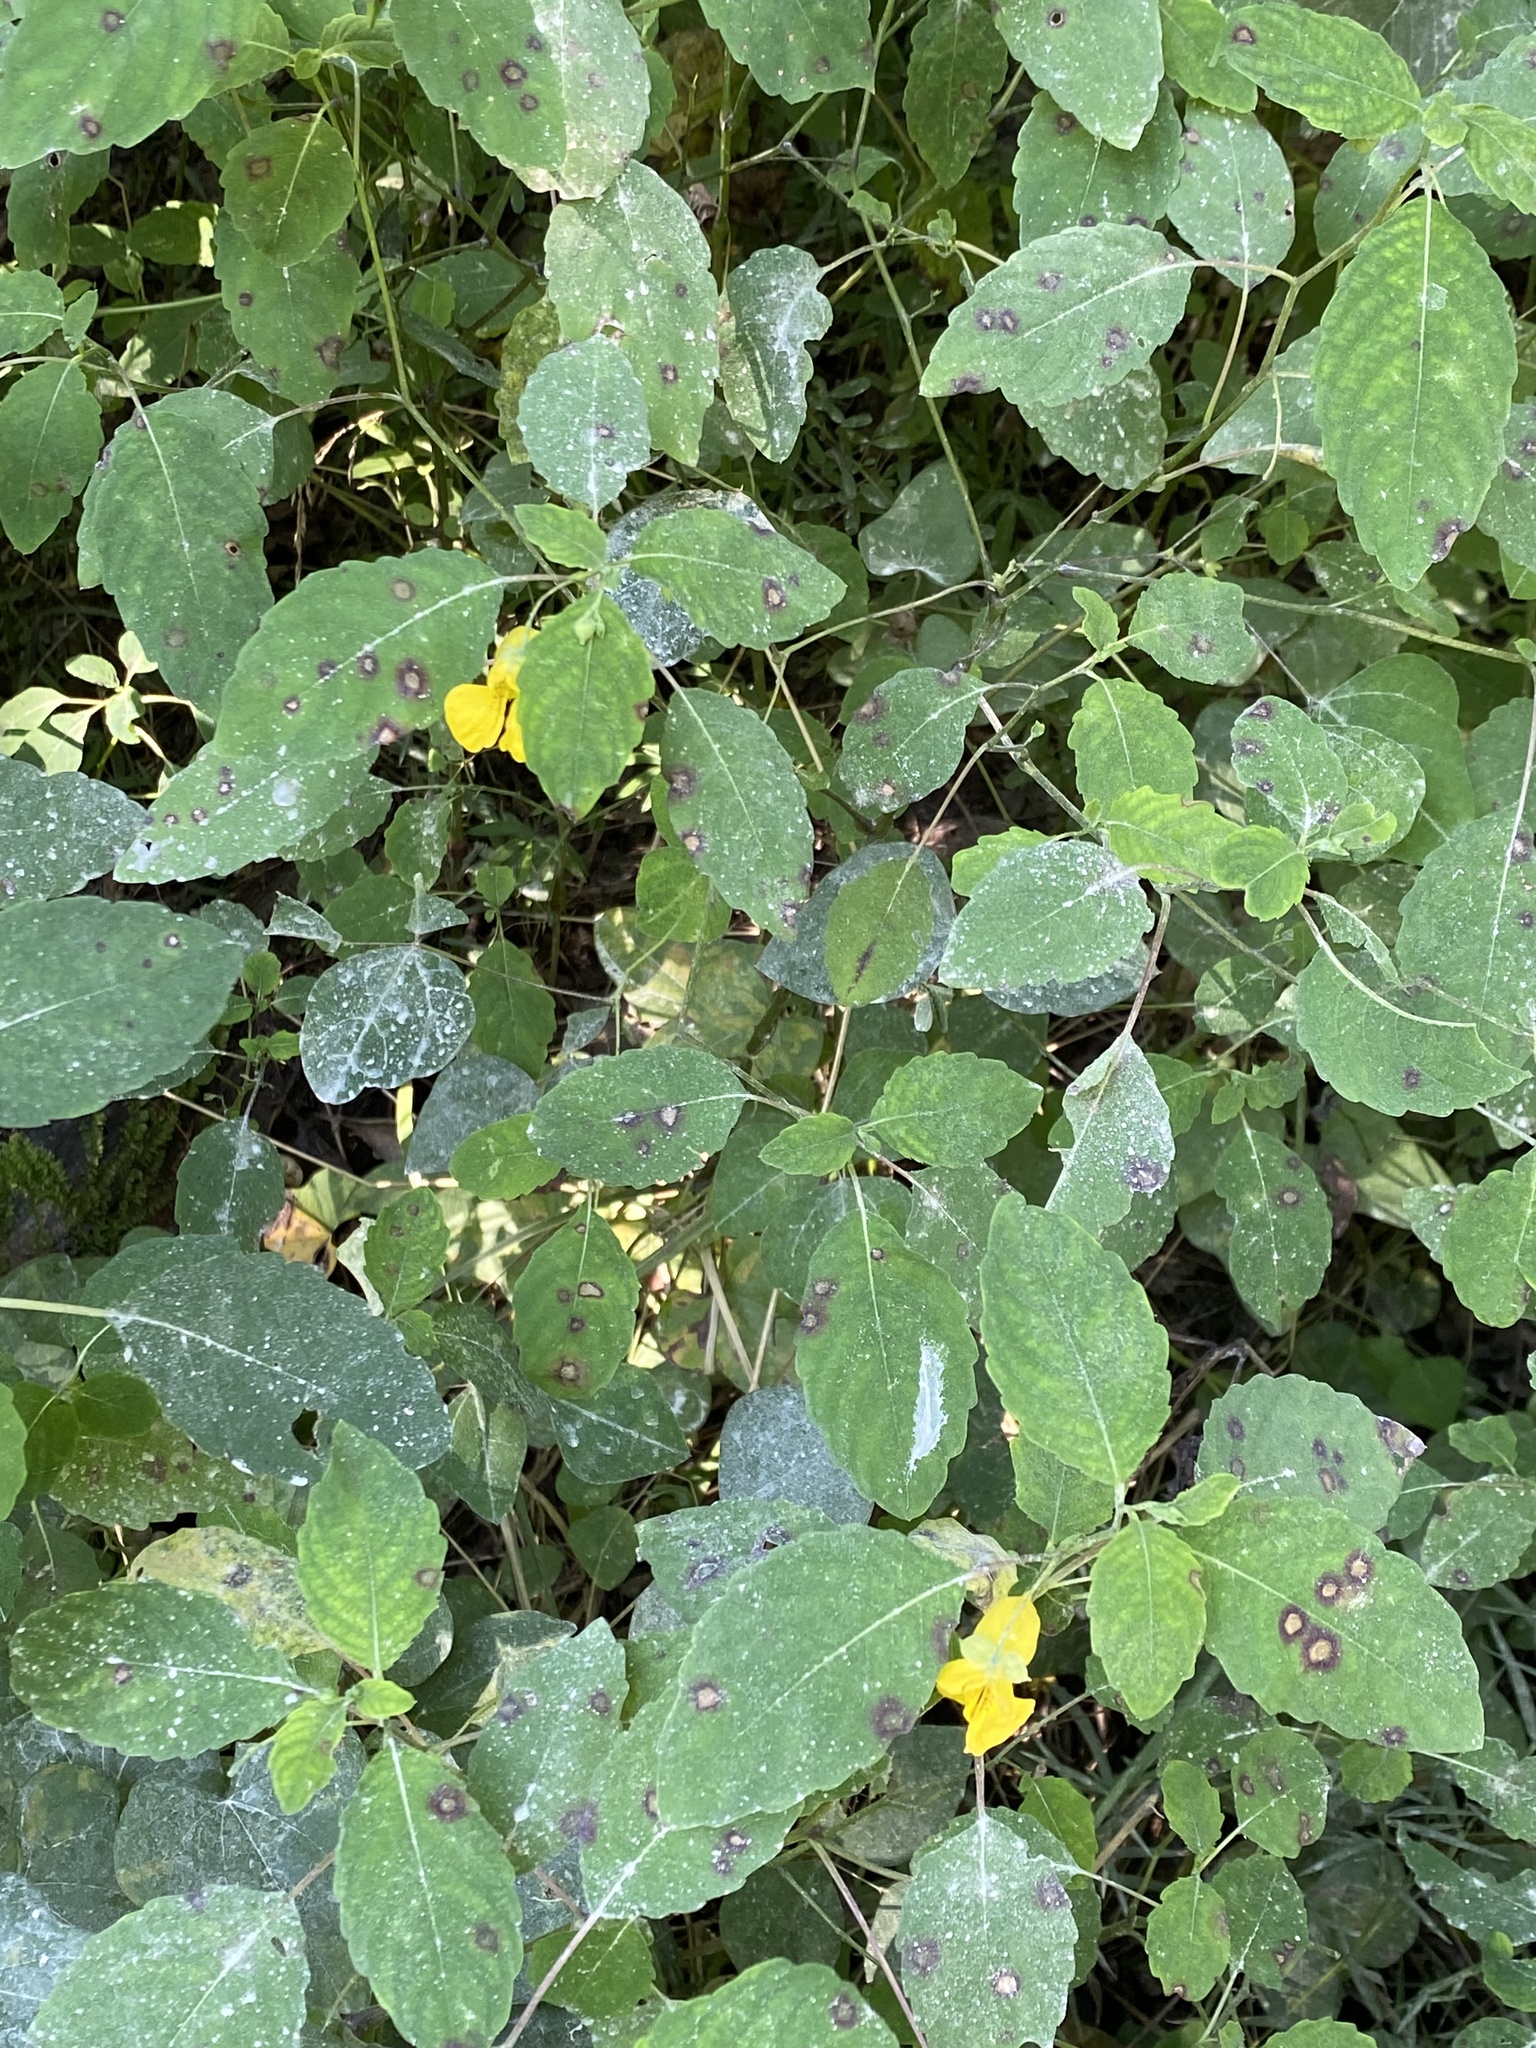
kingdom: Plantae
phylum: Tracheophyta
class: Magnoliopsida
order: Ericales
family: Balsaminaceae
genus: Impatiens
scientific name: Impatiens pallida
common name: Pale snapweed
